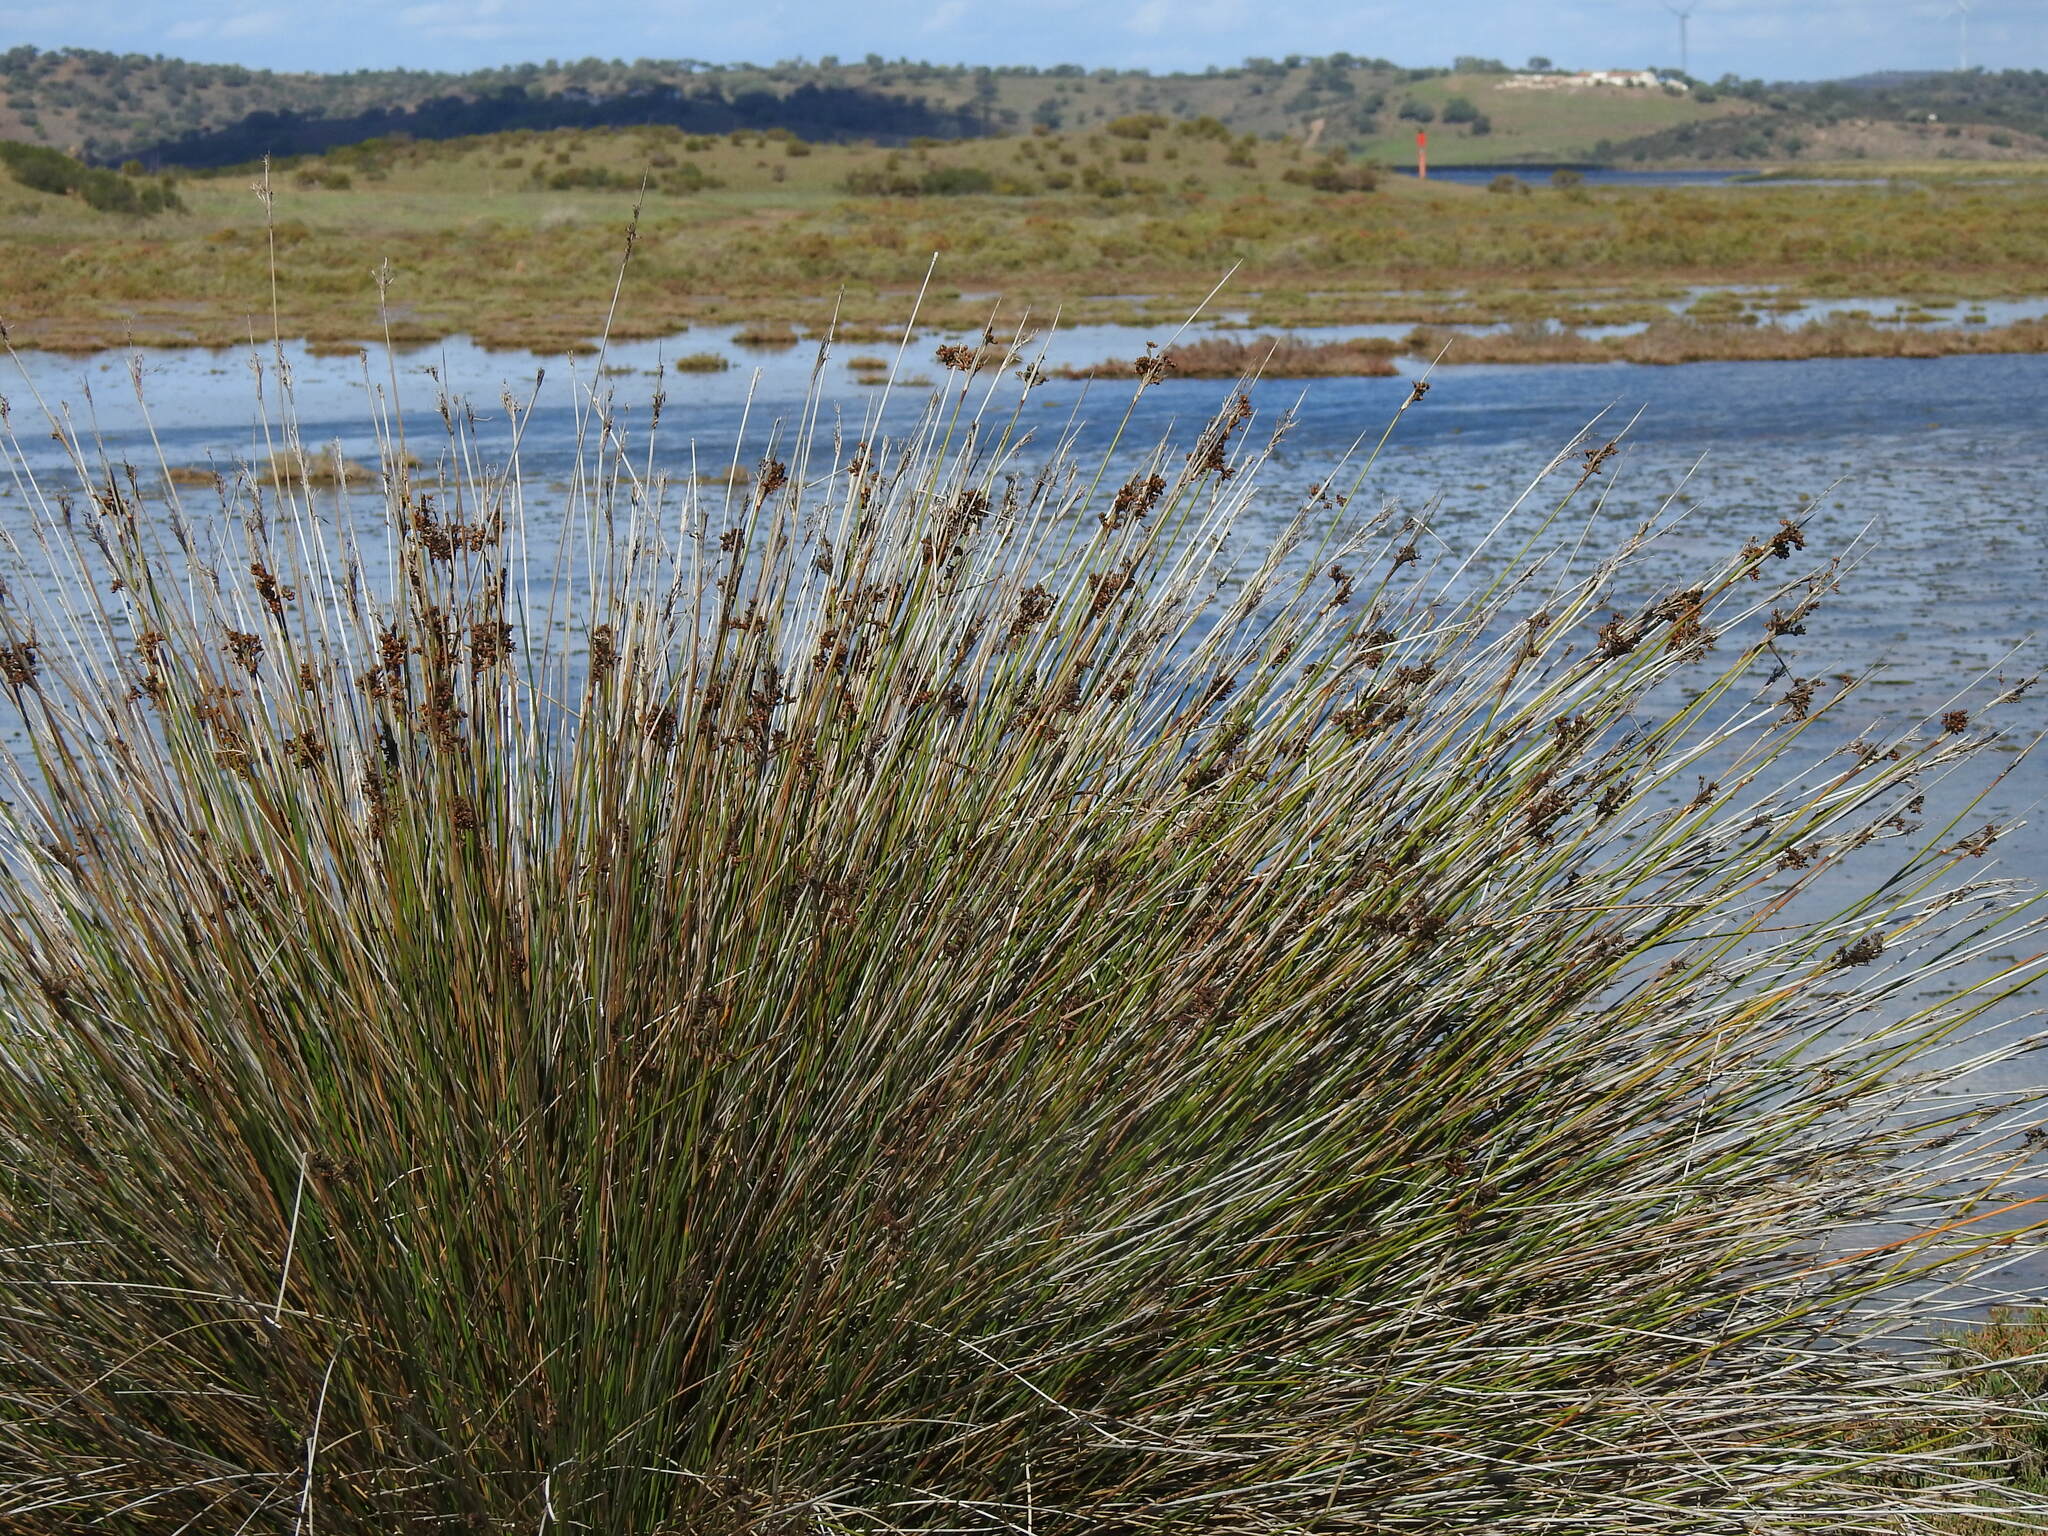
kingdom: Plantae
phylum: Tracheophyta
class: Liliopsida
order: Poales
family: Juncaceae
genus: Juncus
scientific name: Juncus acutus
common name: Sharp rush
